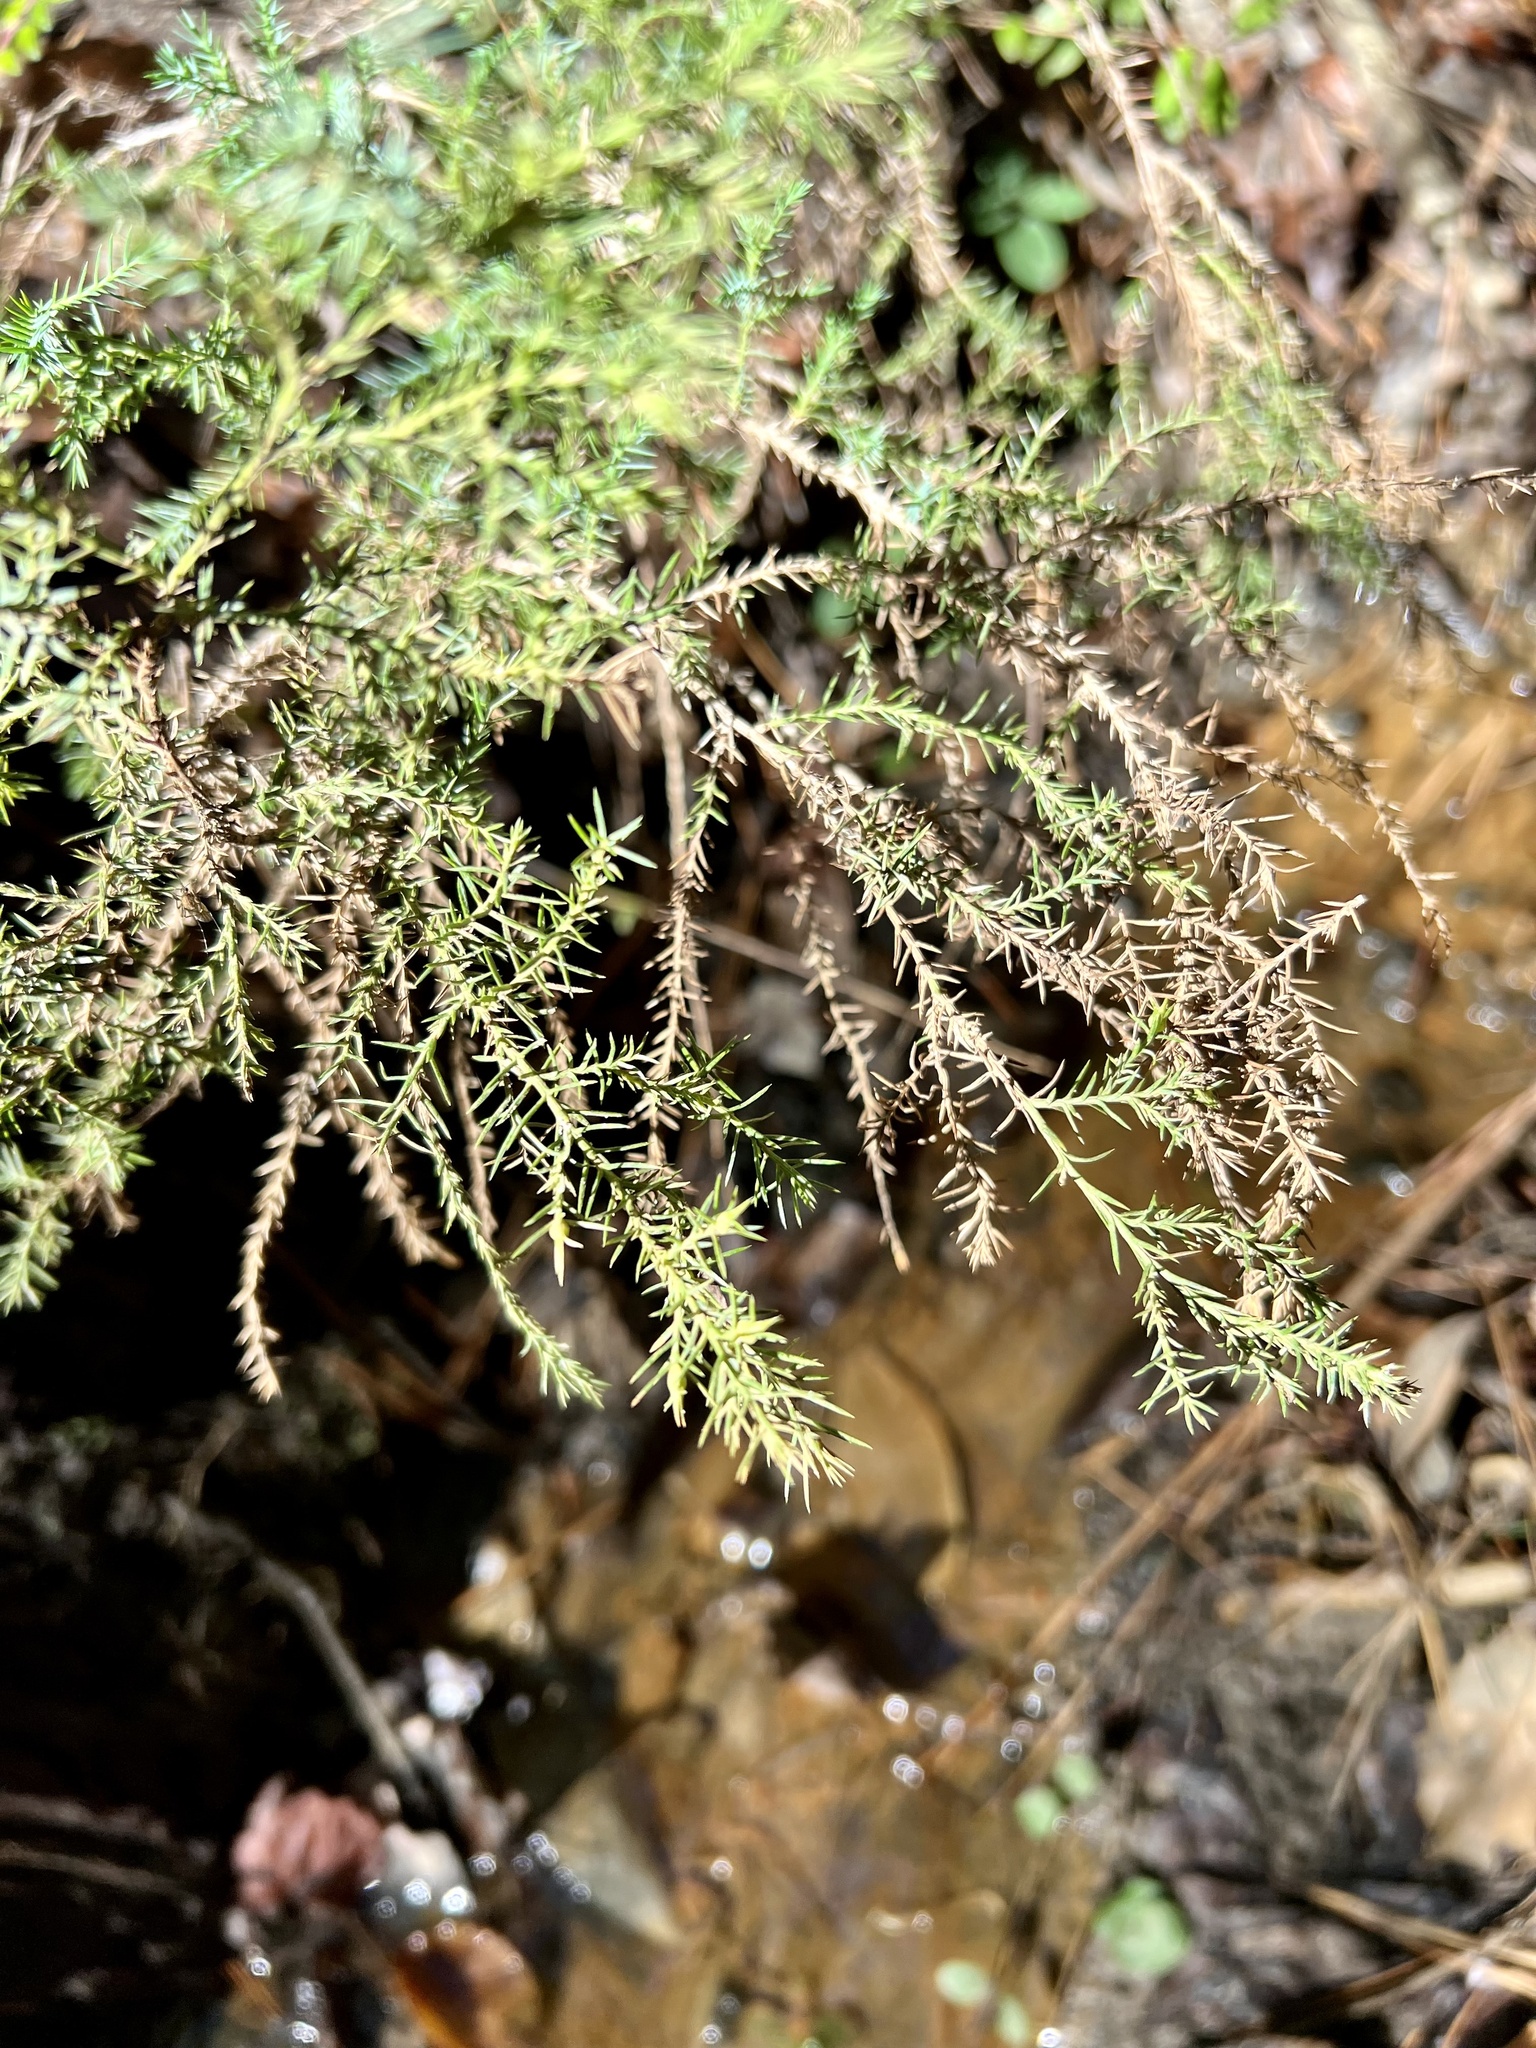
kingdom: Plantae
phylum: Tracheophyta
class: Pinopsida
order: Pinales
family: Cupressaceae
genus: Juniperus
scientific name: Juniperus virginiana
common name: Red juniper
